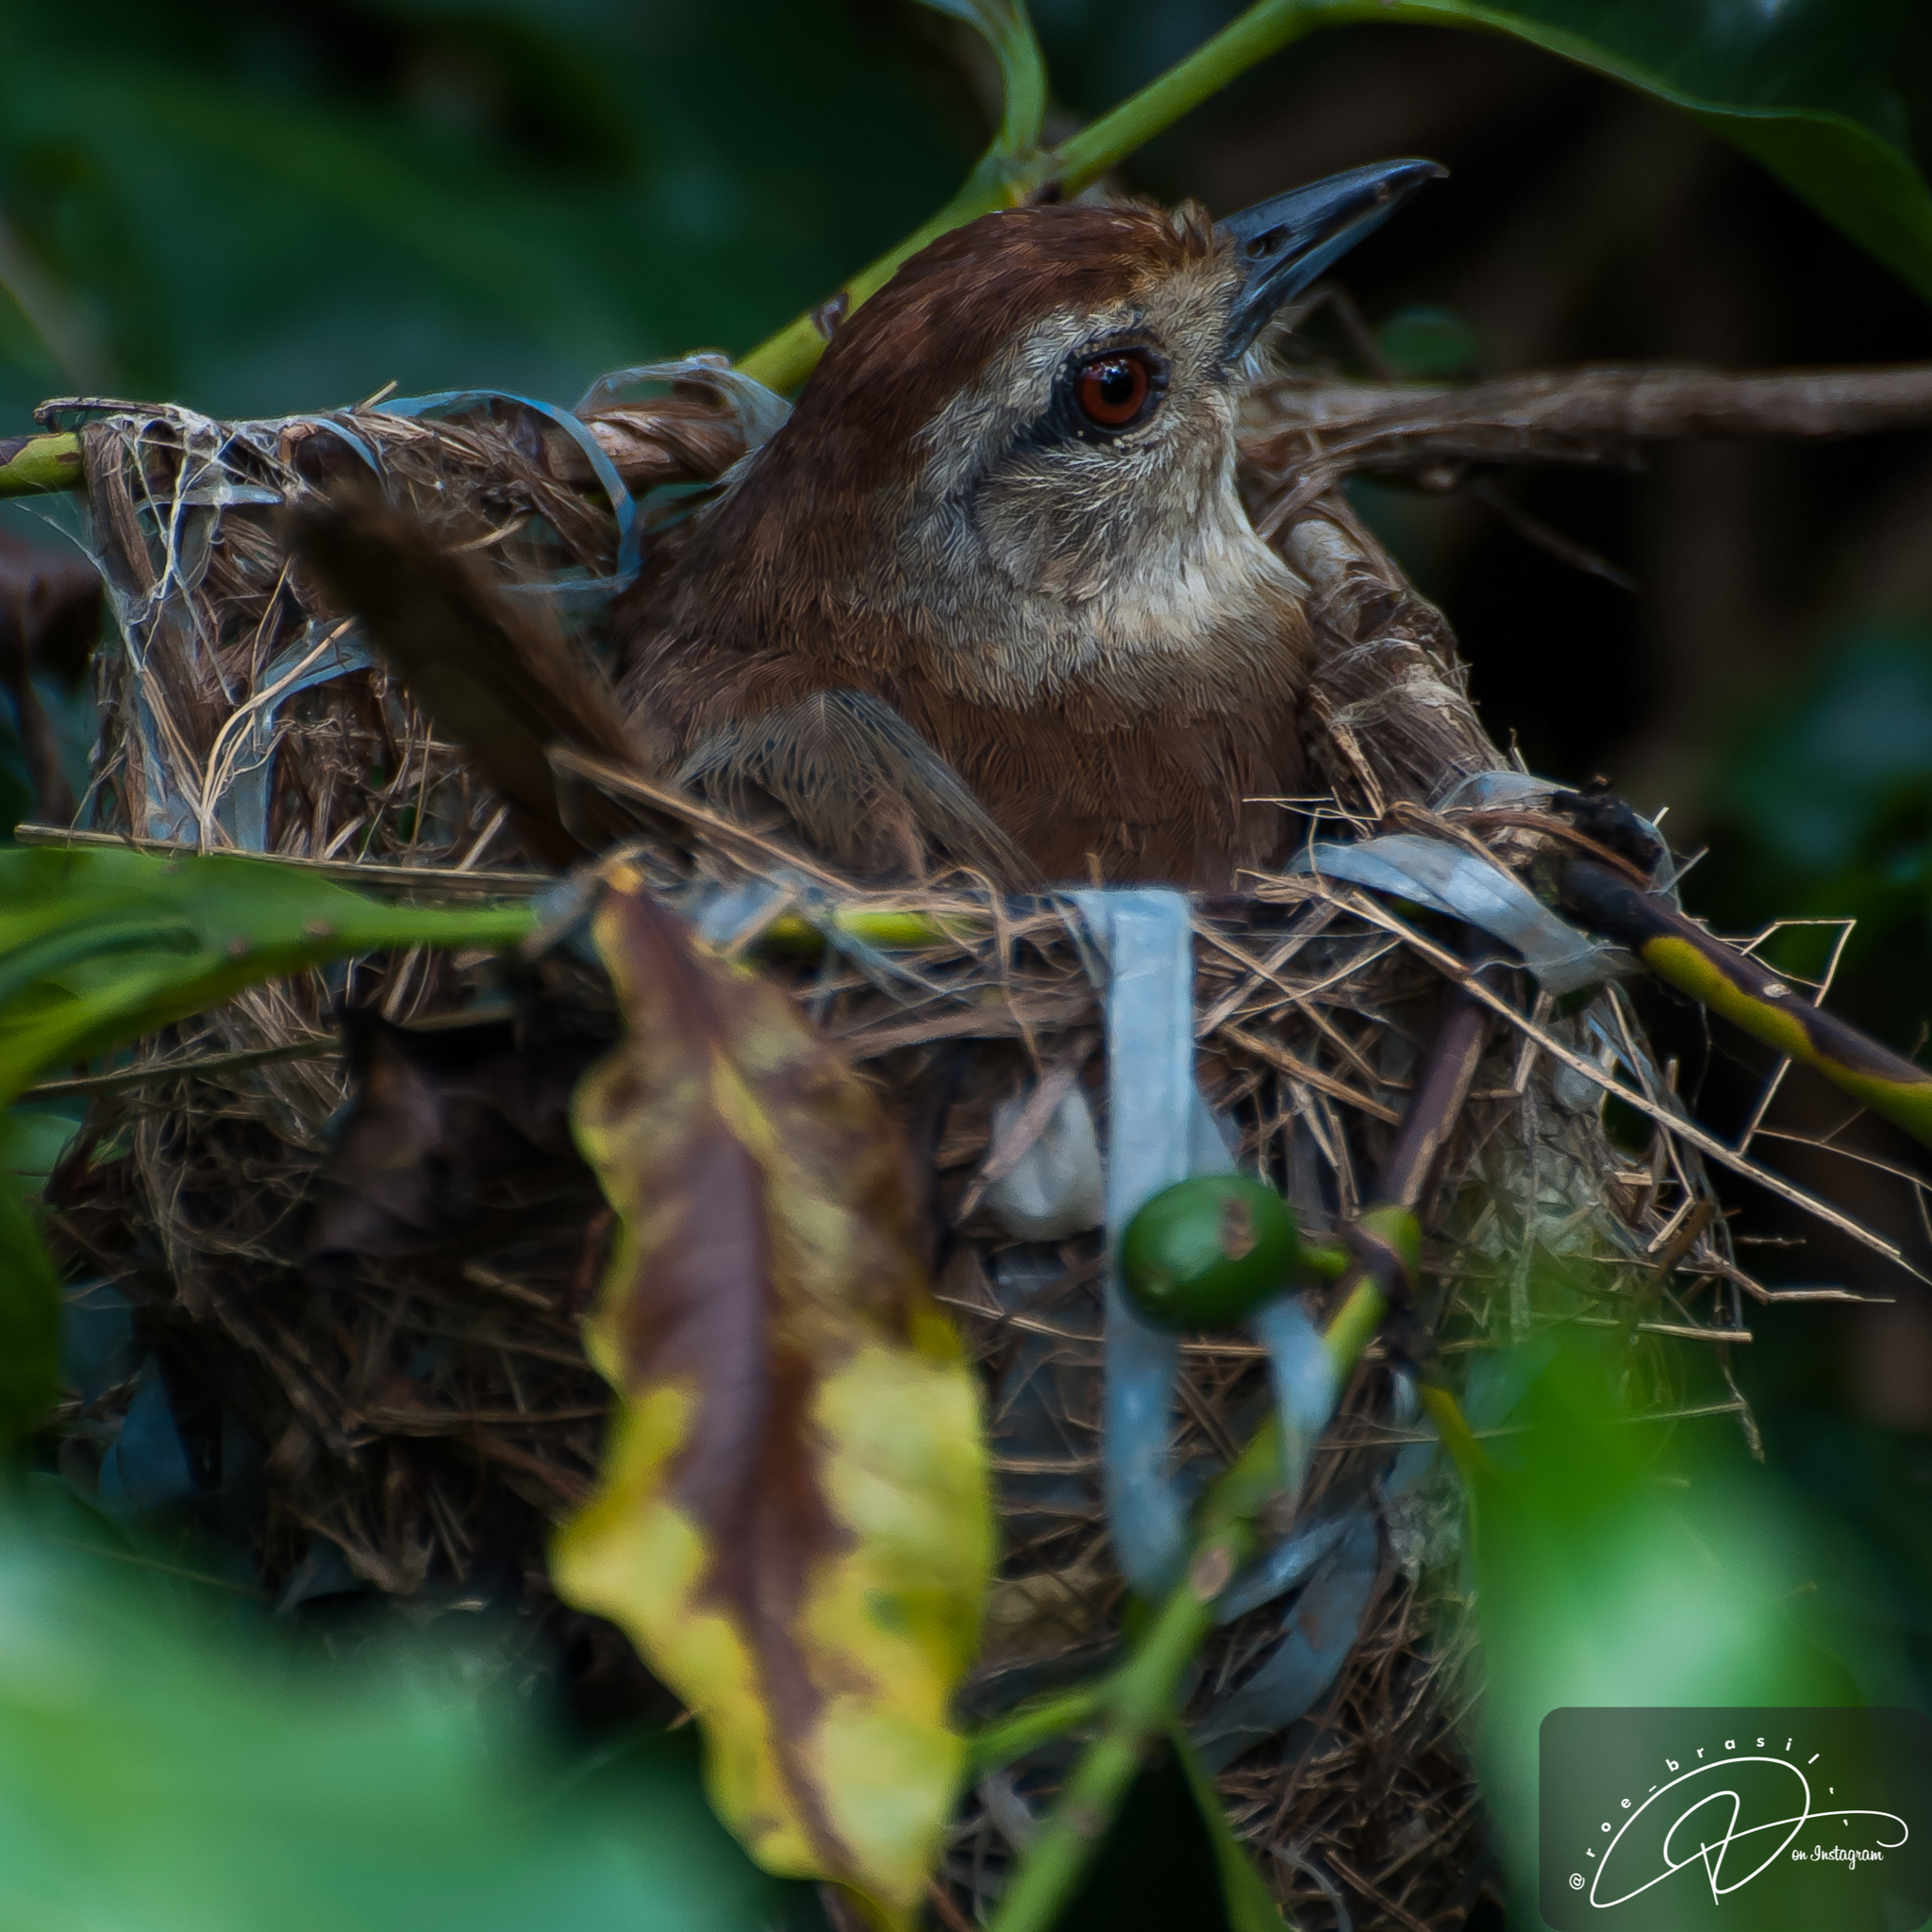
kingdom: Animalia
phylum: Chordata
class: Aves
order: Passeriformes
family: Thamnophilidae
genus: Thamnophilus
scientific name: Thamnophilus ruficapillus
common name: Rufous-capped antshrike
